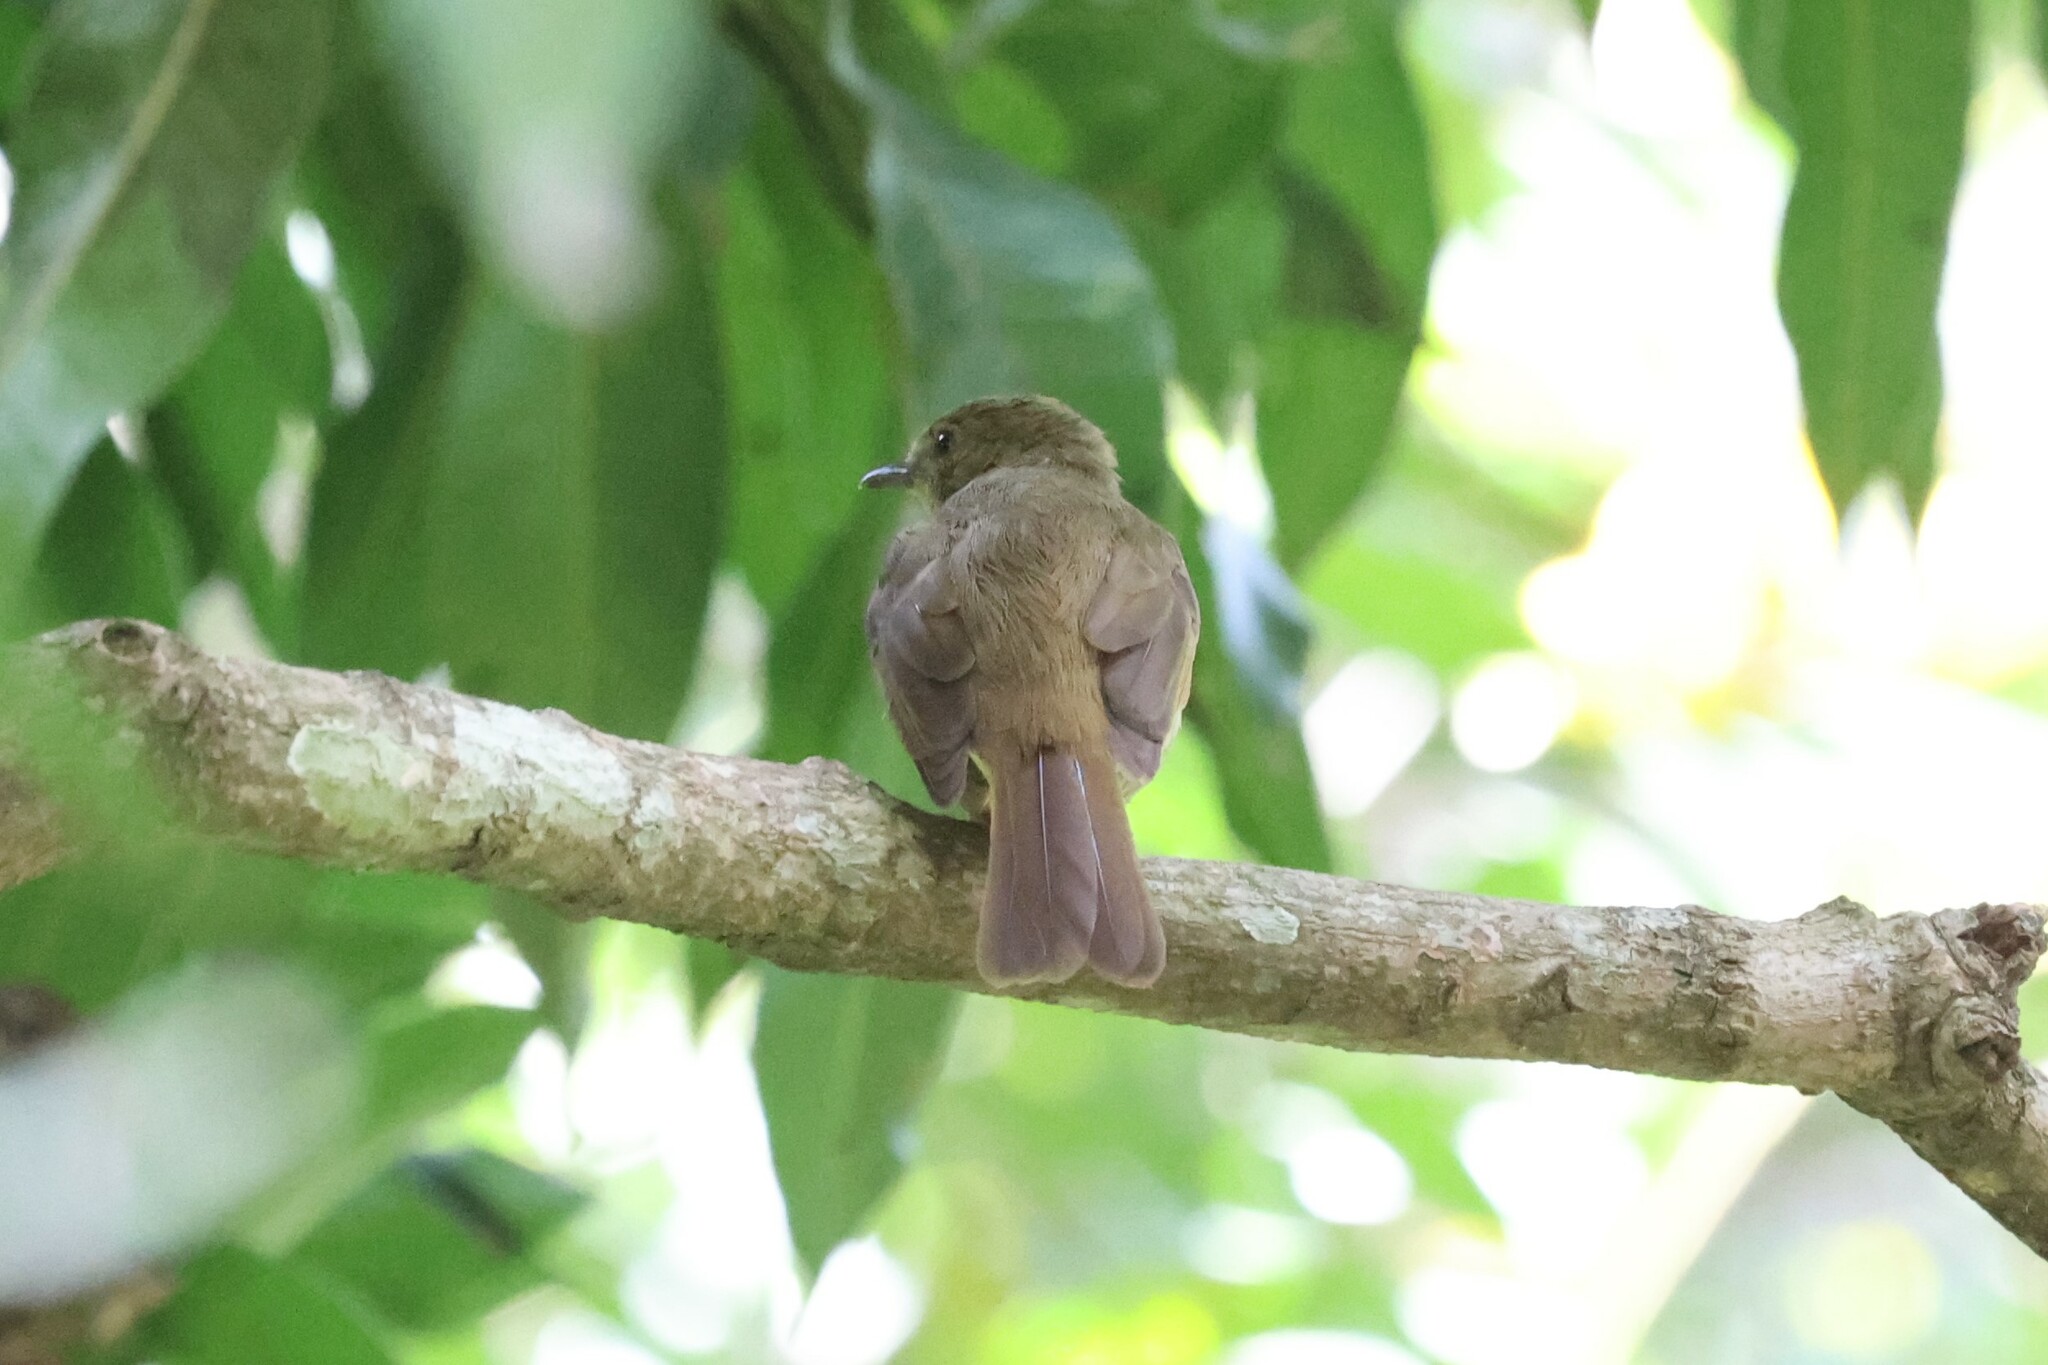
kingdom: Animalia
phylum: Chordata
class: Aves
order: Passeriformes
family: Pycnonotidae
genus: Eurillas
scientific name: Eurillas virens
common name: Little greenbul
